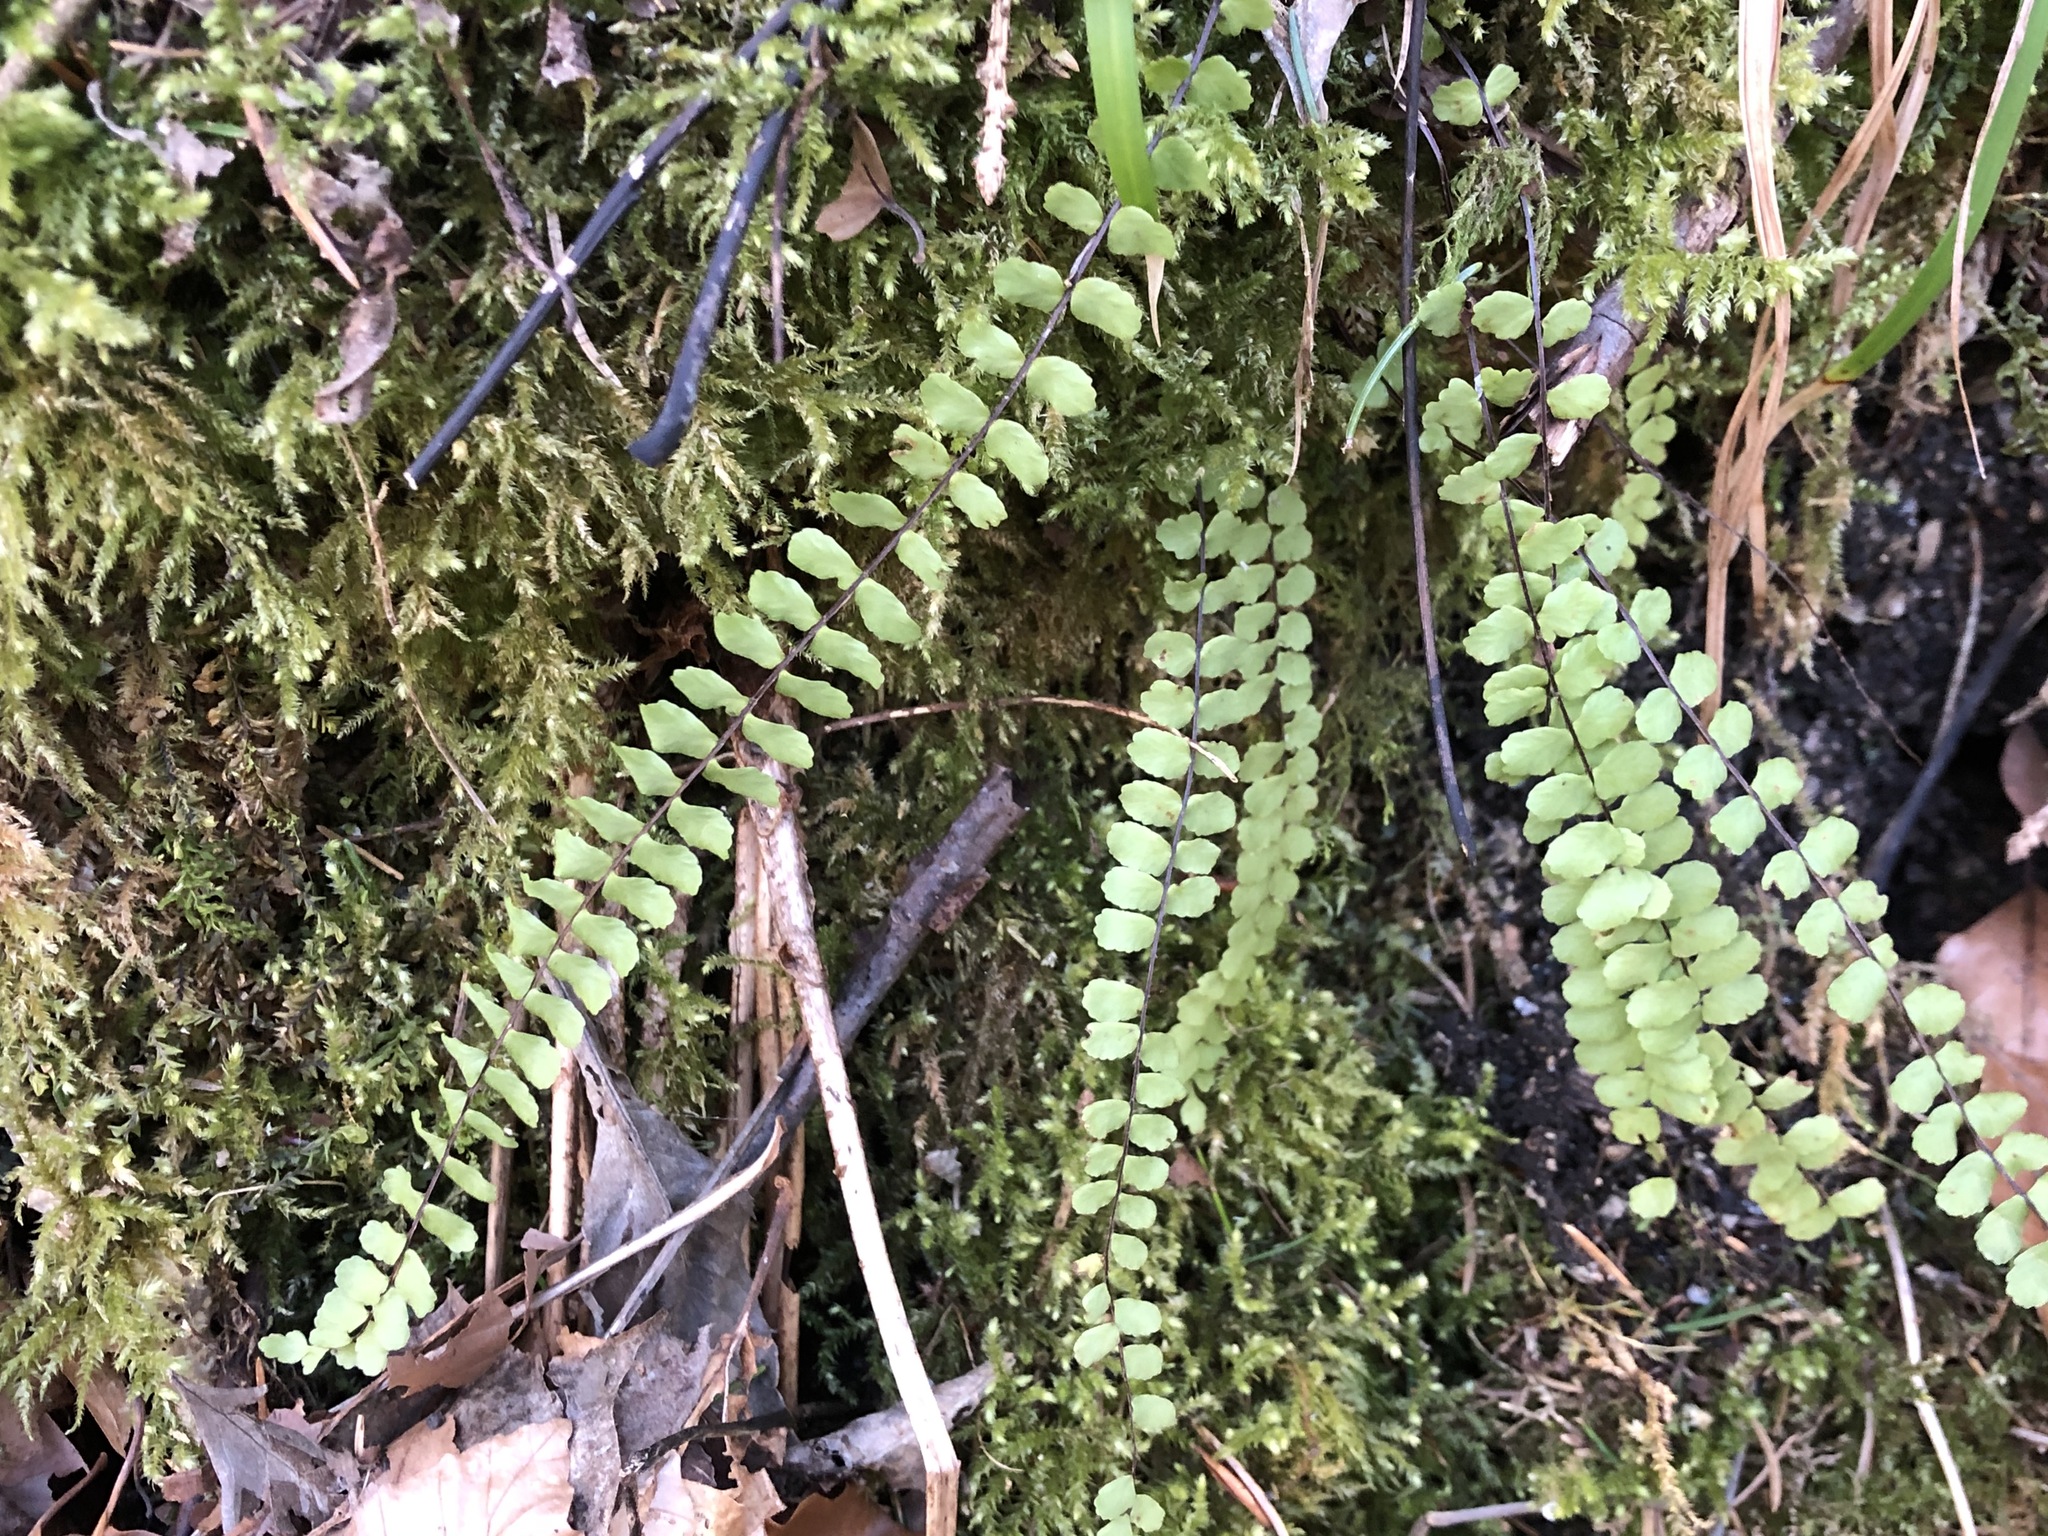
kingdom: Plantae
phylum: Tracheophyta
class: Polypodiopsida
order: Polypodiales
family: Aspleniaceae
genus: Asplenium
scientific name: Asplenium trichomanes
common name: Maidenhair spleenwort
